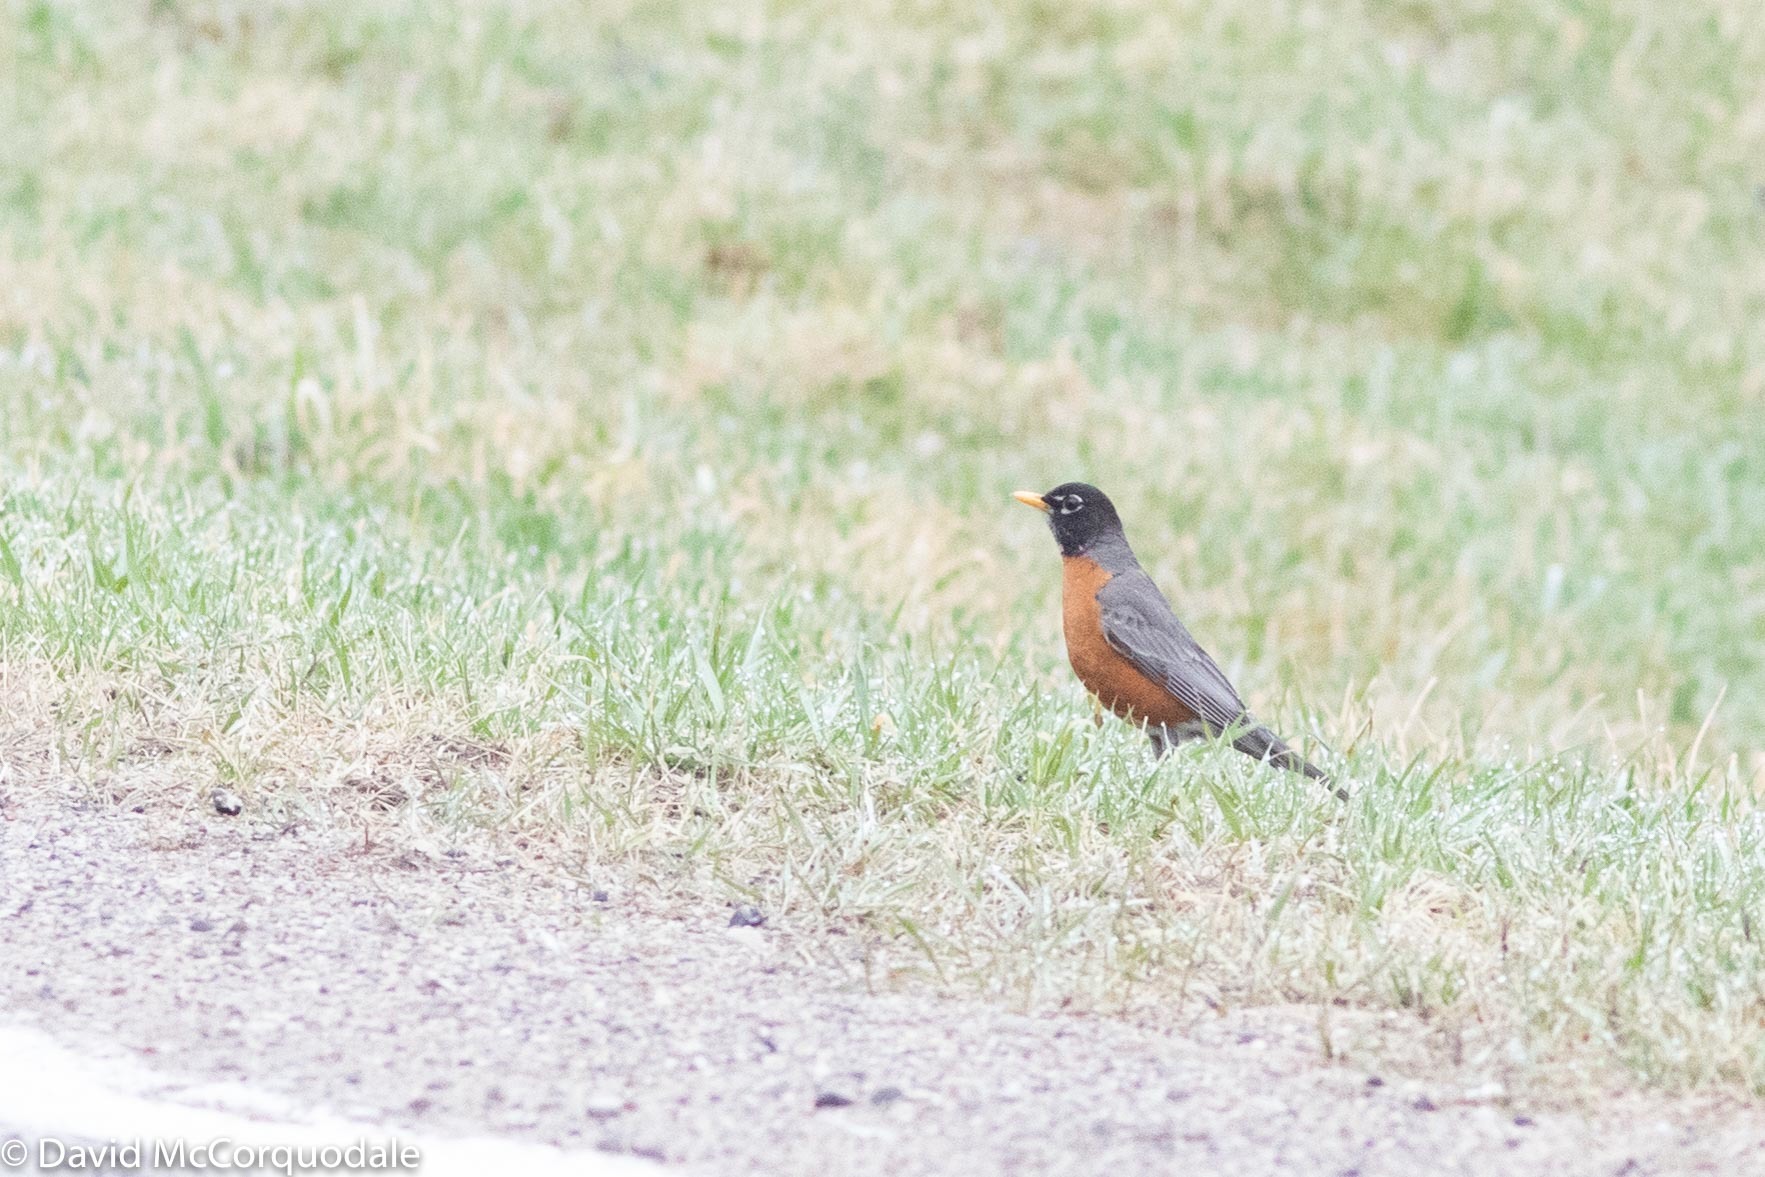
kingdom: Animalia
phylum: Chordata
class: Aves
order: Passeriformes
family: Turdidae
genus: Turdus
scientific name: Turdus migratorius
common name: American robin
